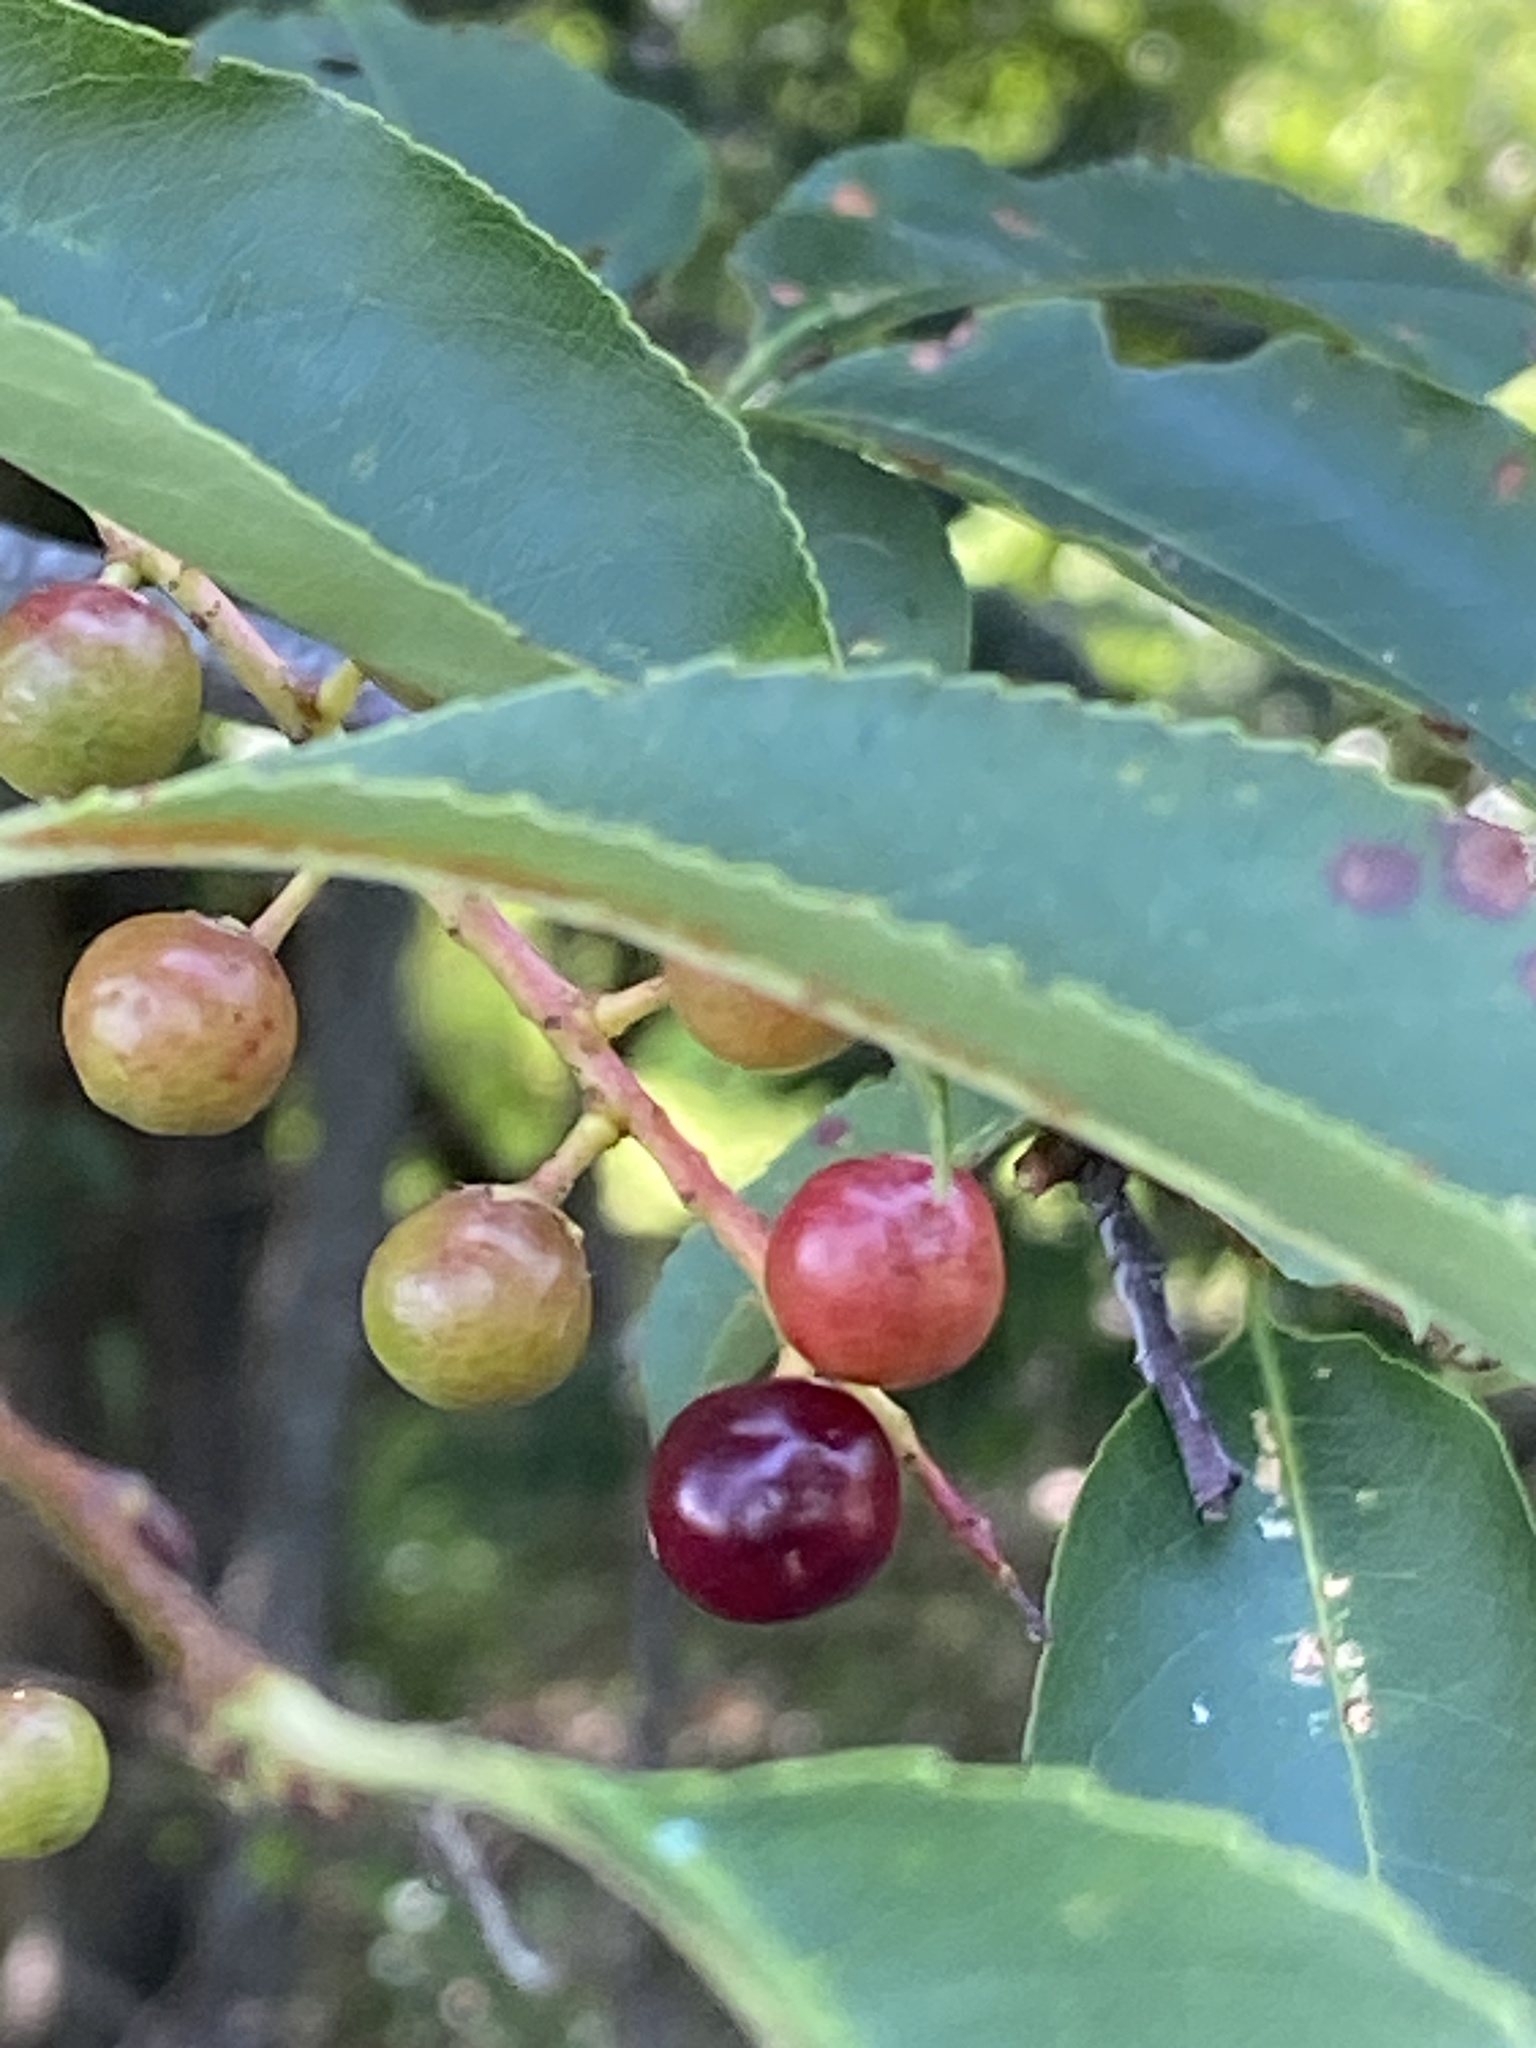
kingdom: Plantae
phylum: Tracheophyta
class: Magnoliopsida
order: Rosales
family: Rosaceae
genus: Prunus
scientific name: Prunus serotina
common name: Black cherry
